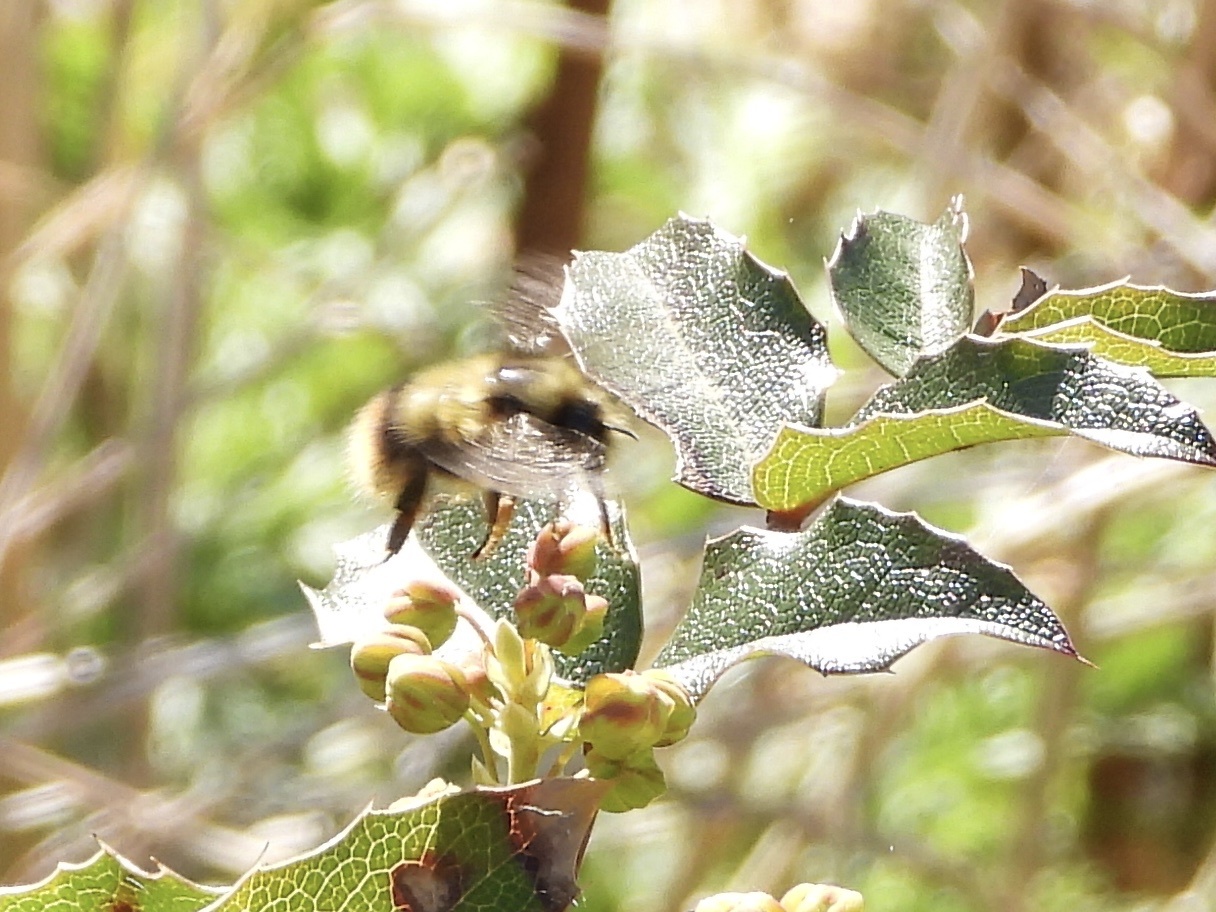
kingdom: Animalia
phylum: Arthropoda
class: Insecta
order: Hymenoptera
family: Apidae
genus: Bombus
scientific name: Bombus mixtus
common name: Fuzzy-horned bumble bee
